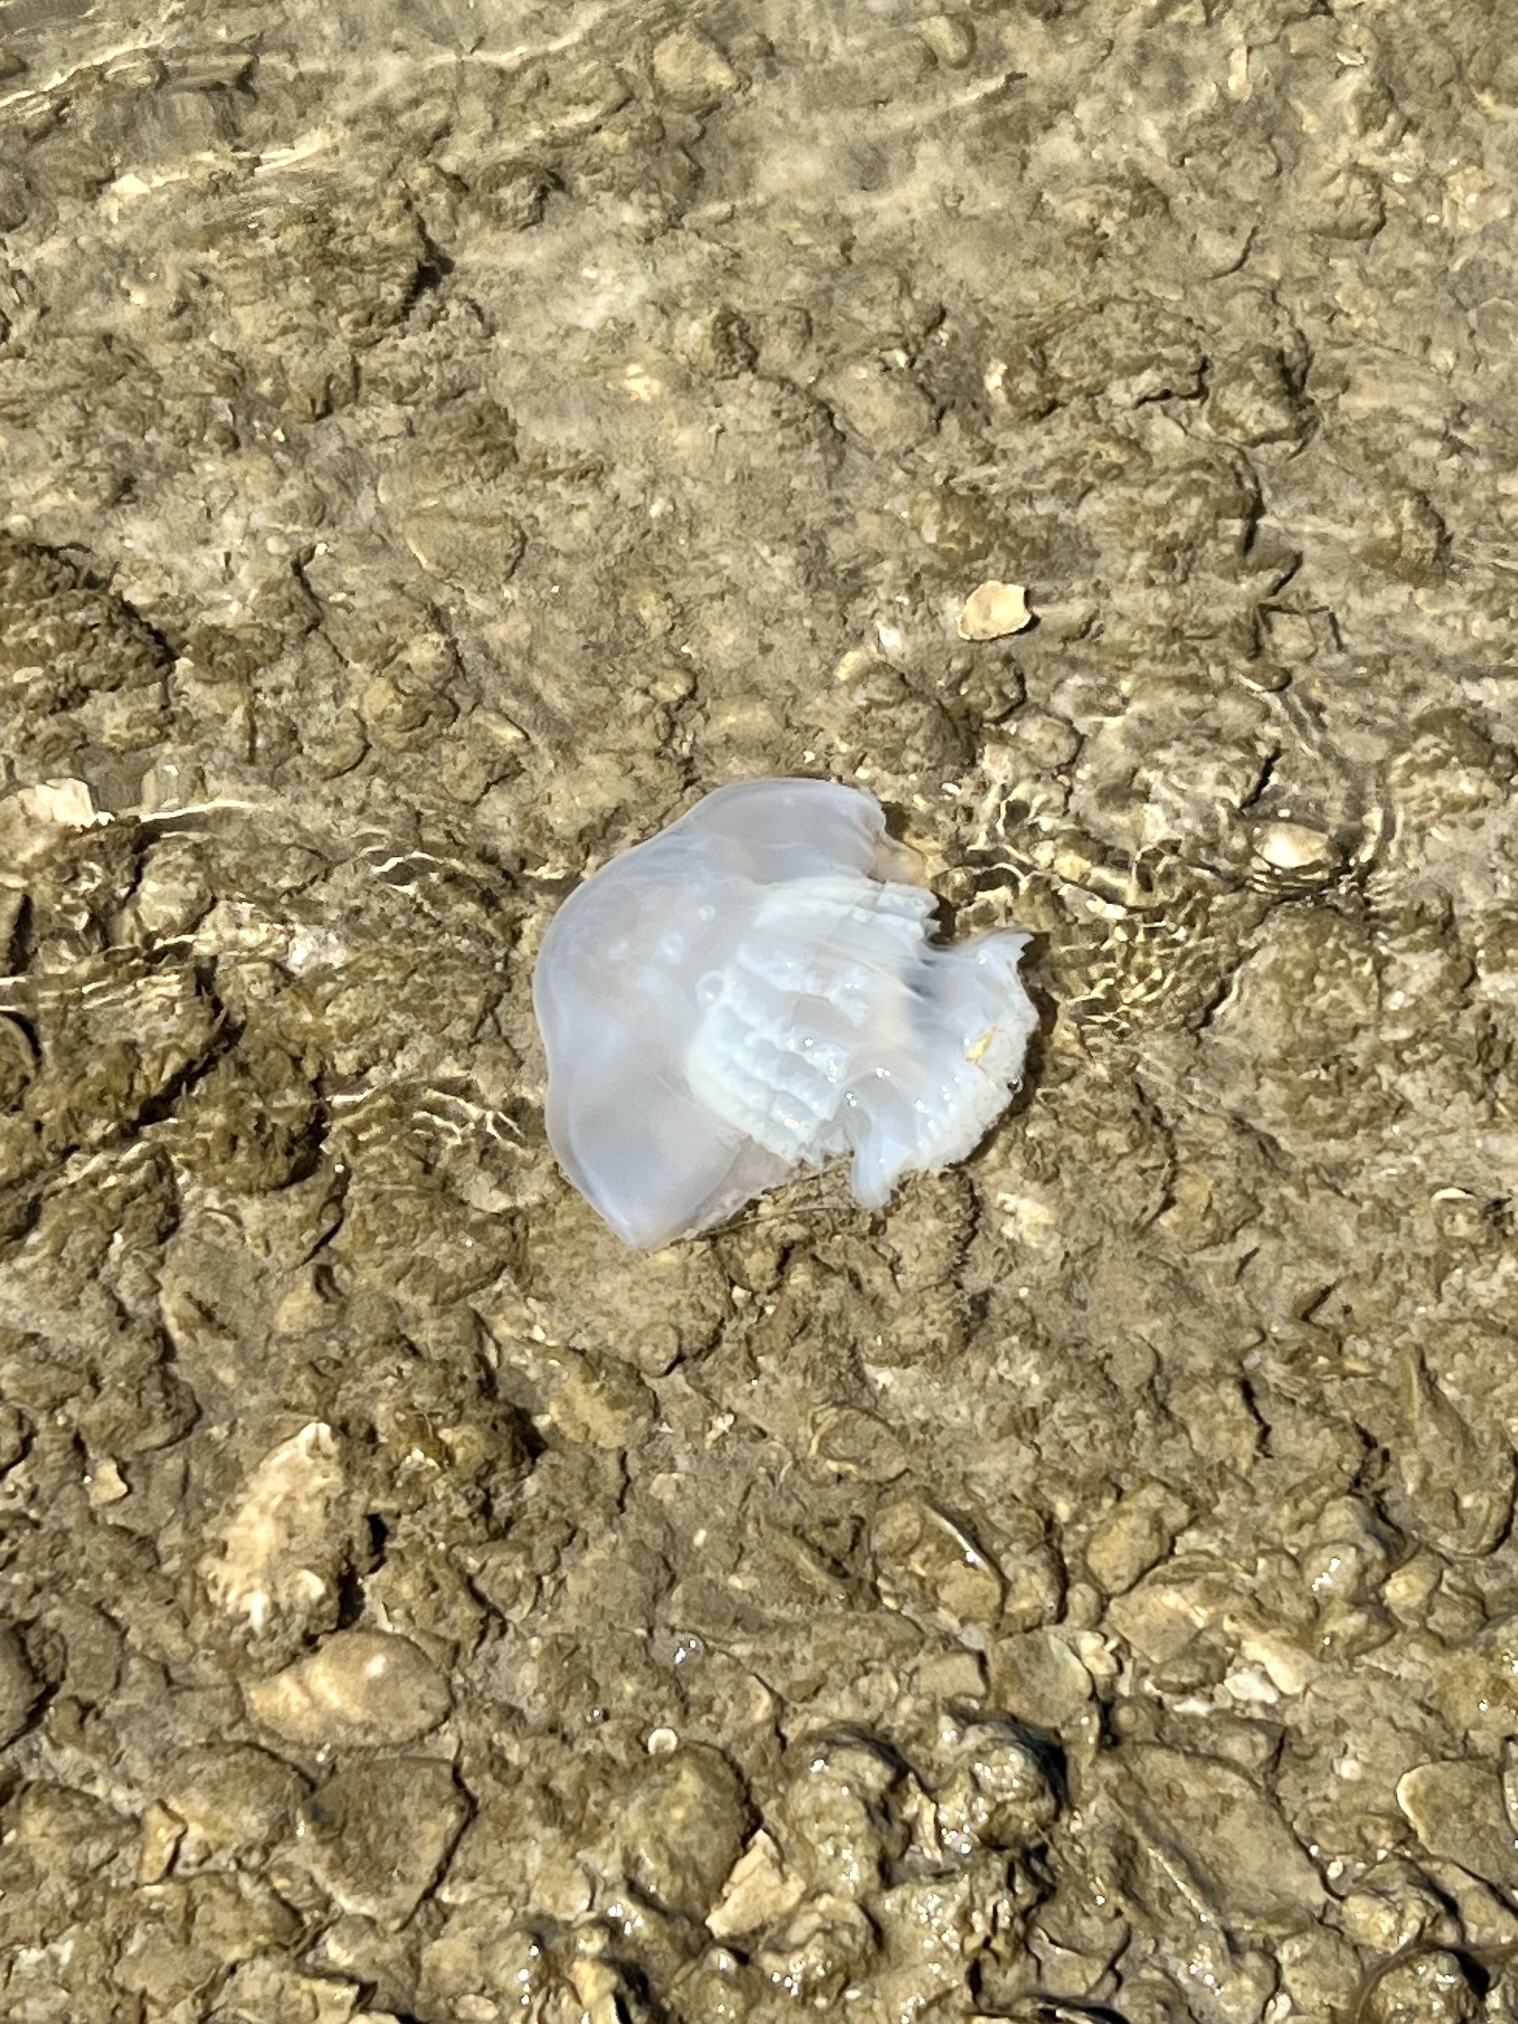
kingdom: Animalia
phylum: Cnidaria
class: Scyphozoa
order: Rhizostomeae
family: Stomolophidae
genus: Stomolophus
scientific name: Stomolophus meleagris
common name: Cabbagehead
